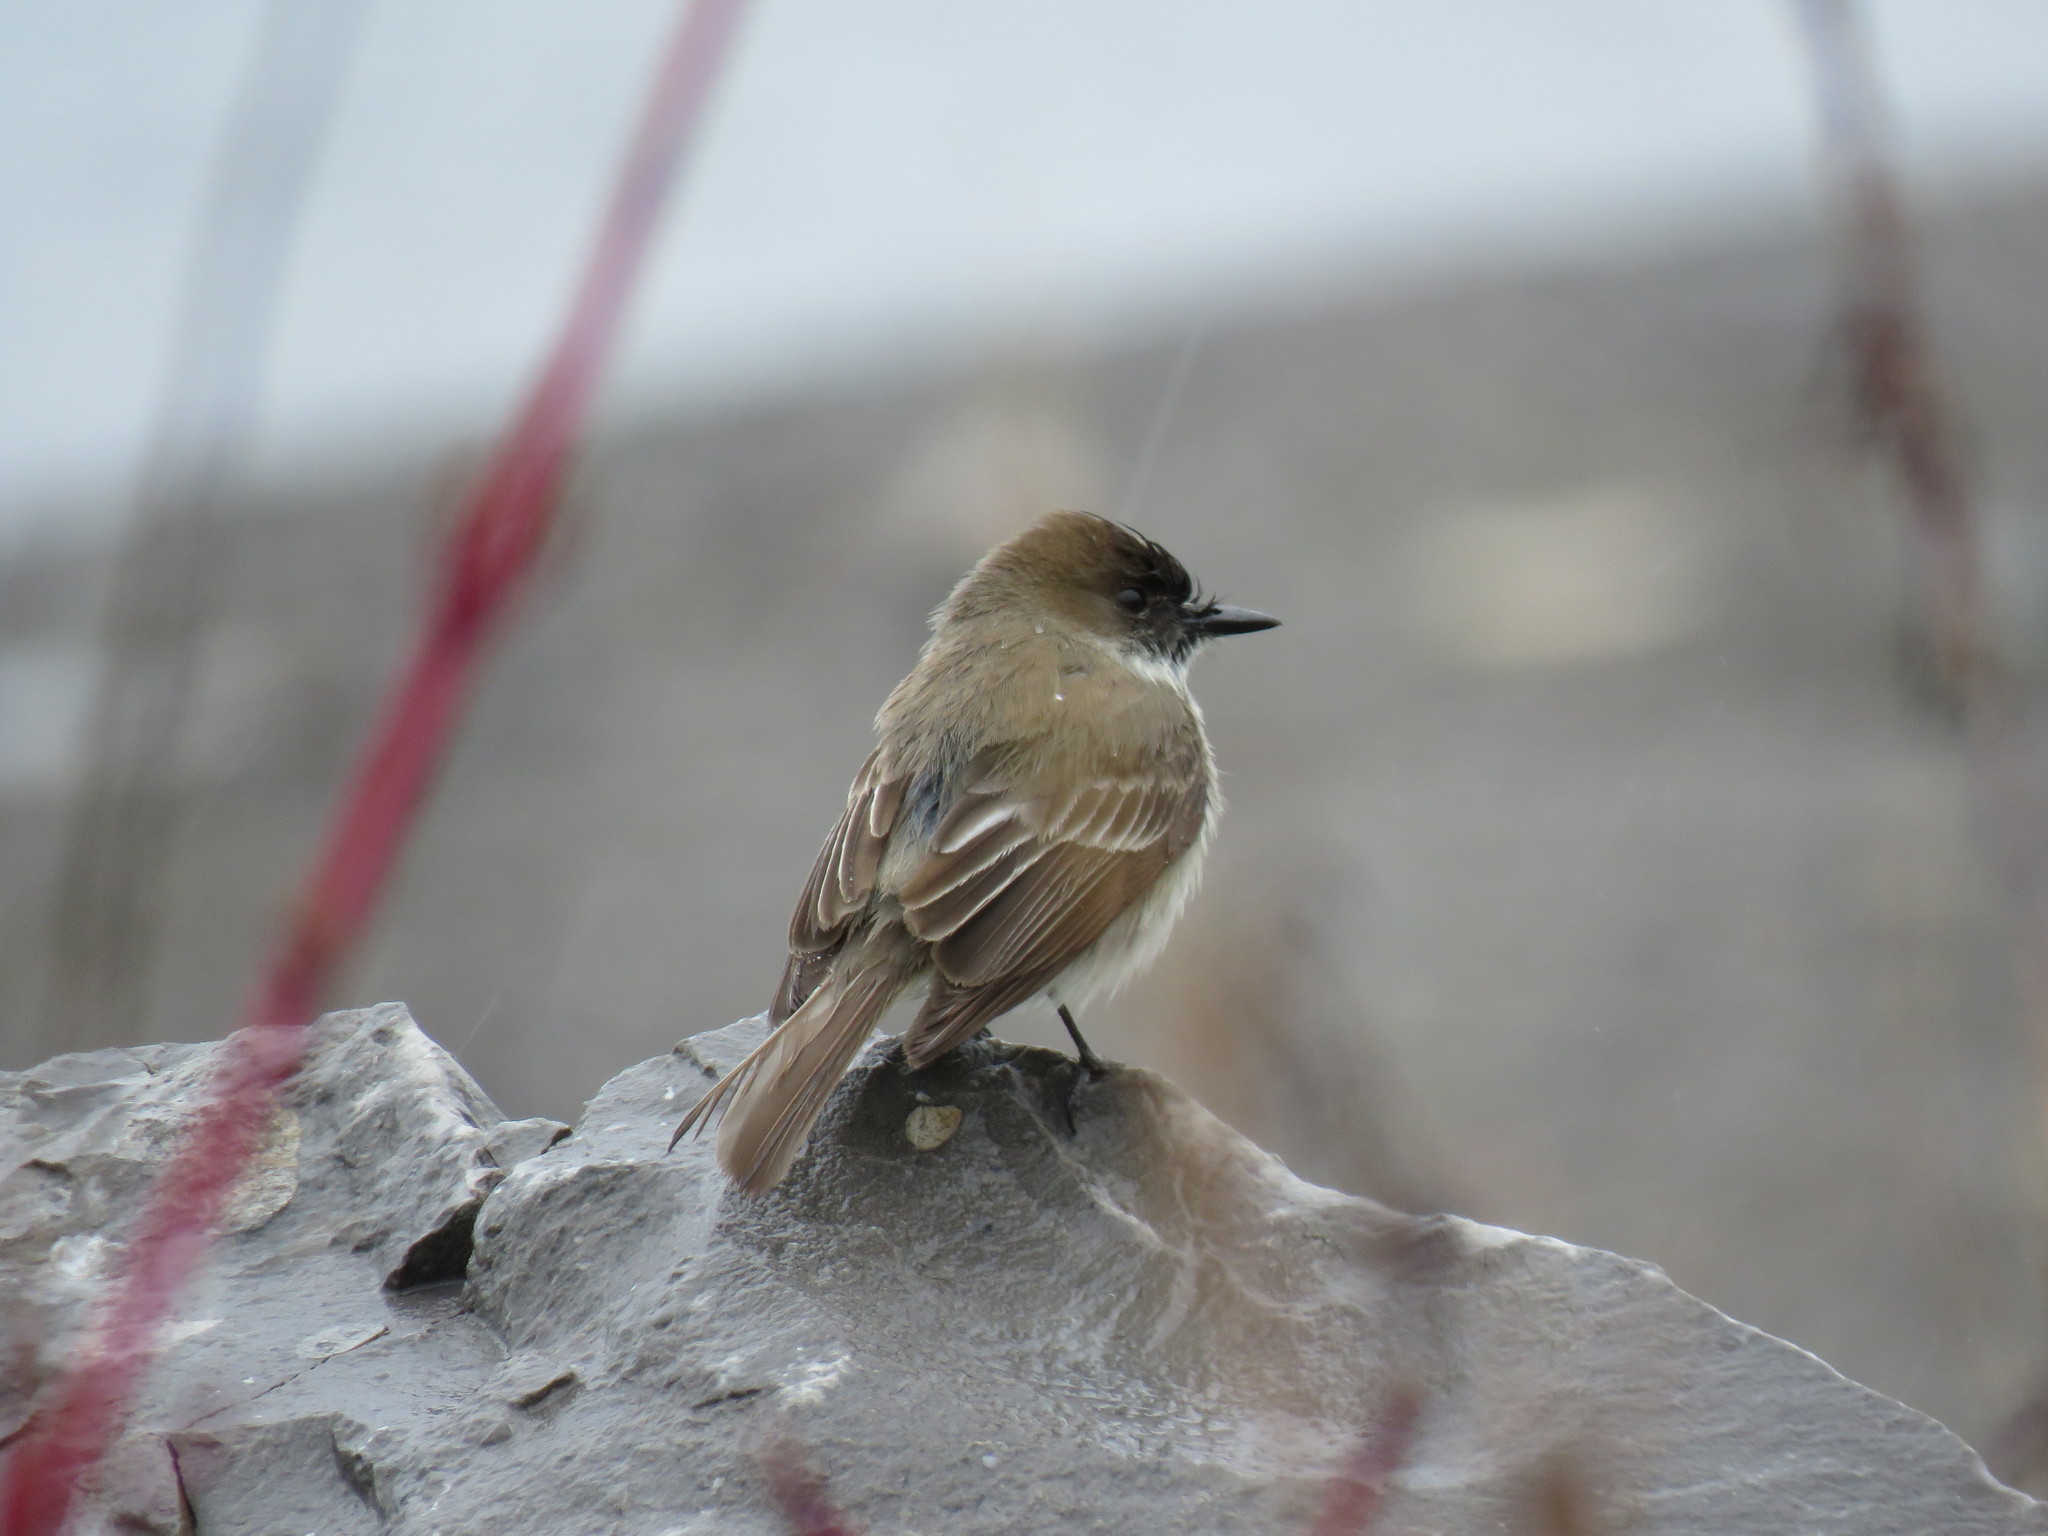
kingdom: Animalia
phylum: Chordata
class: Aves
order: Passeriformes
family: Tyrannidae
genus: Sayornis
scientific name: Sayornis phoebe
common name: Eastern phoebe
